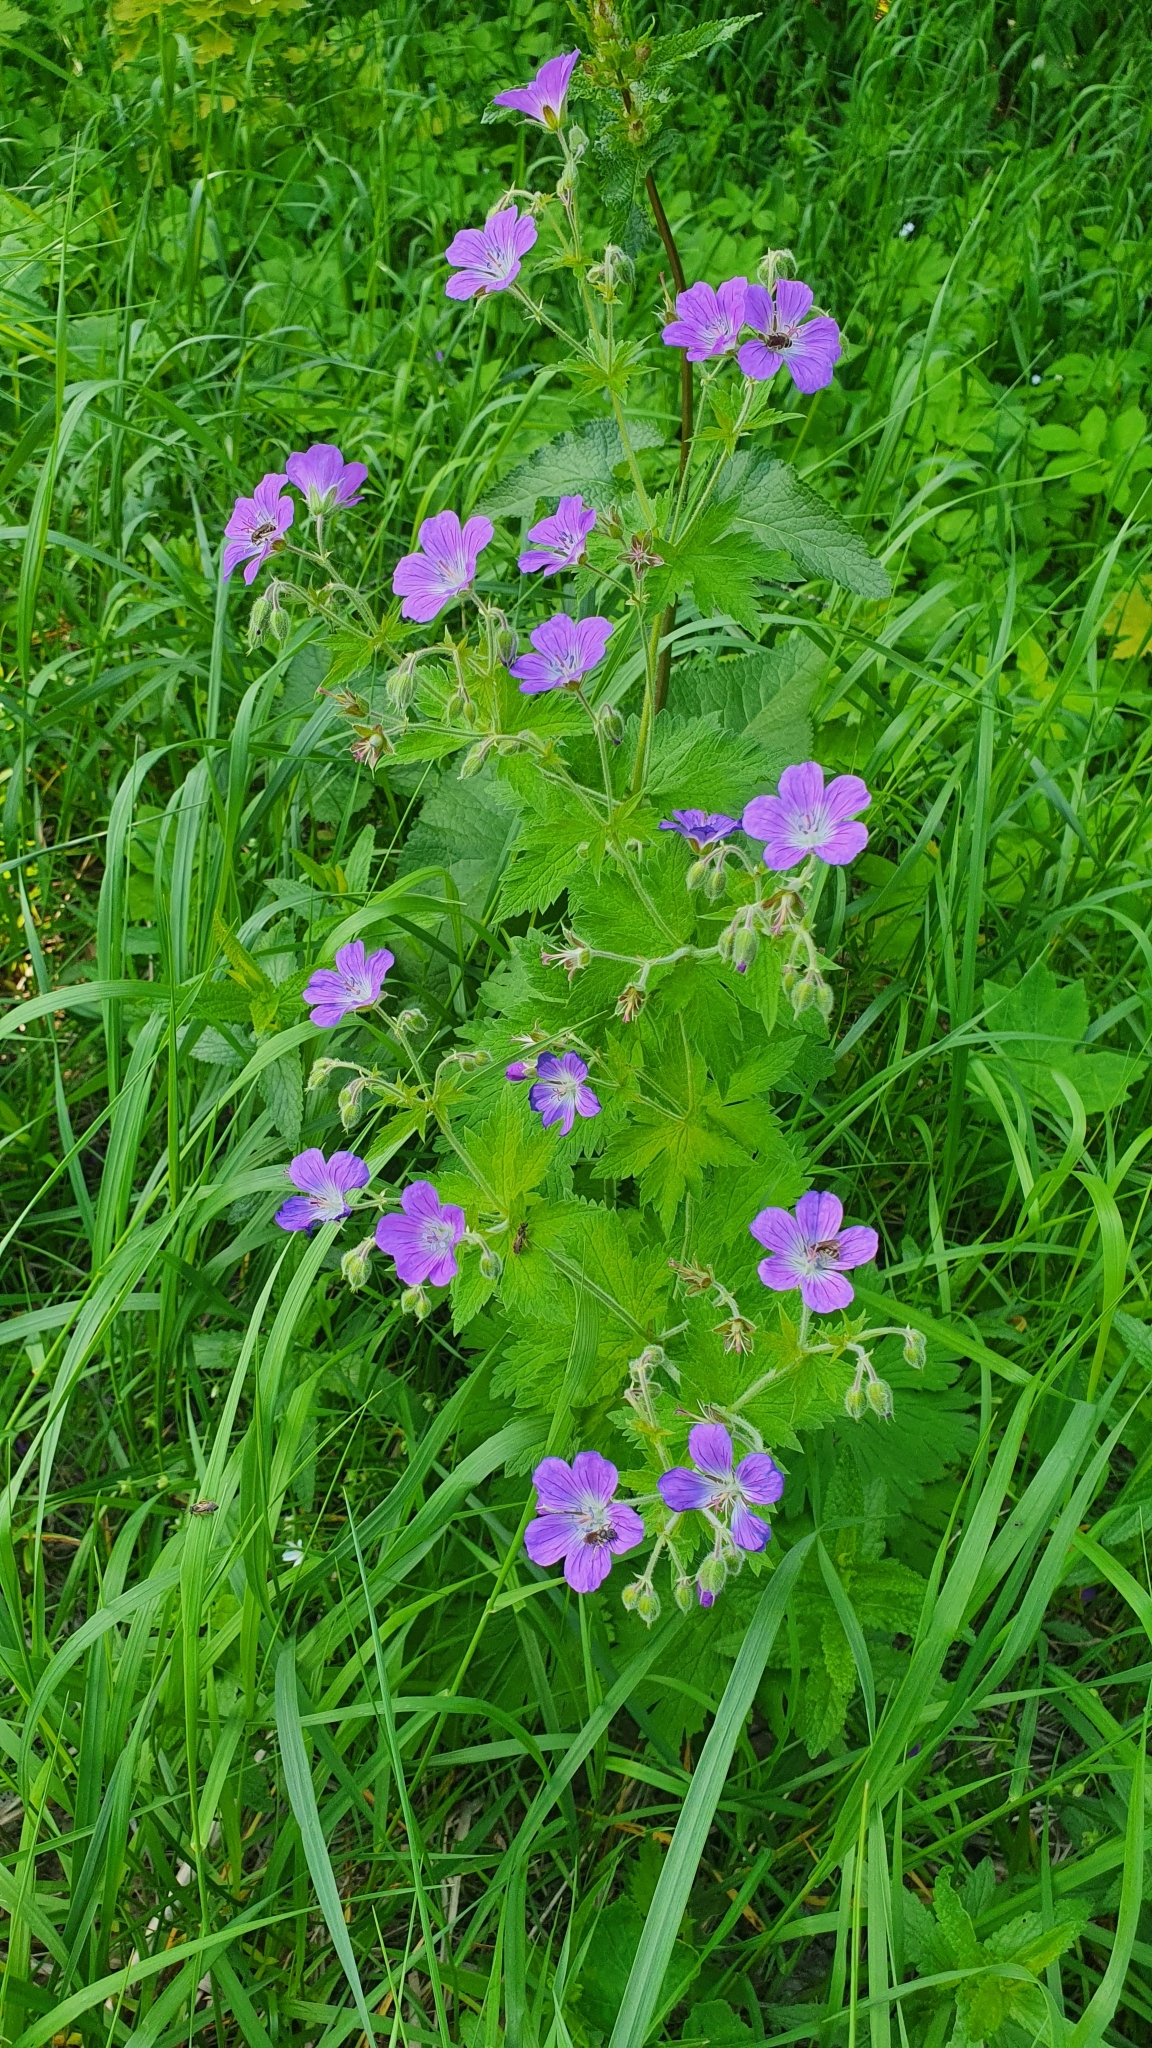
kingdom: Plantae
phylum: Tracheophyta
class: Magnoliopsida
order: Geraniales
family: Geraniaceae
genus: Geranium
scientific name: Geranium sylvaticum
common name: Wood crane's-bill
